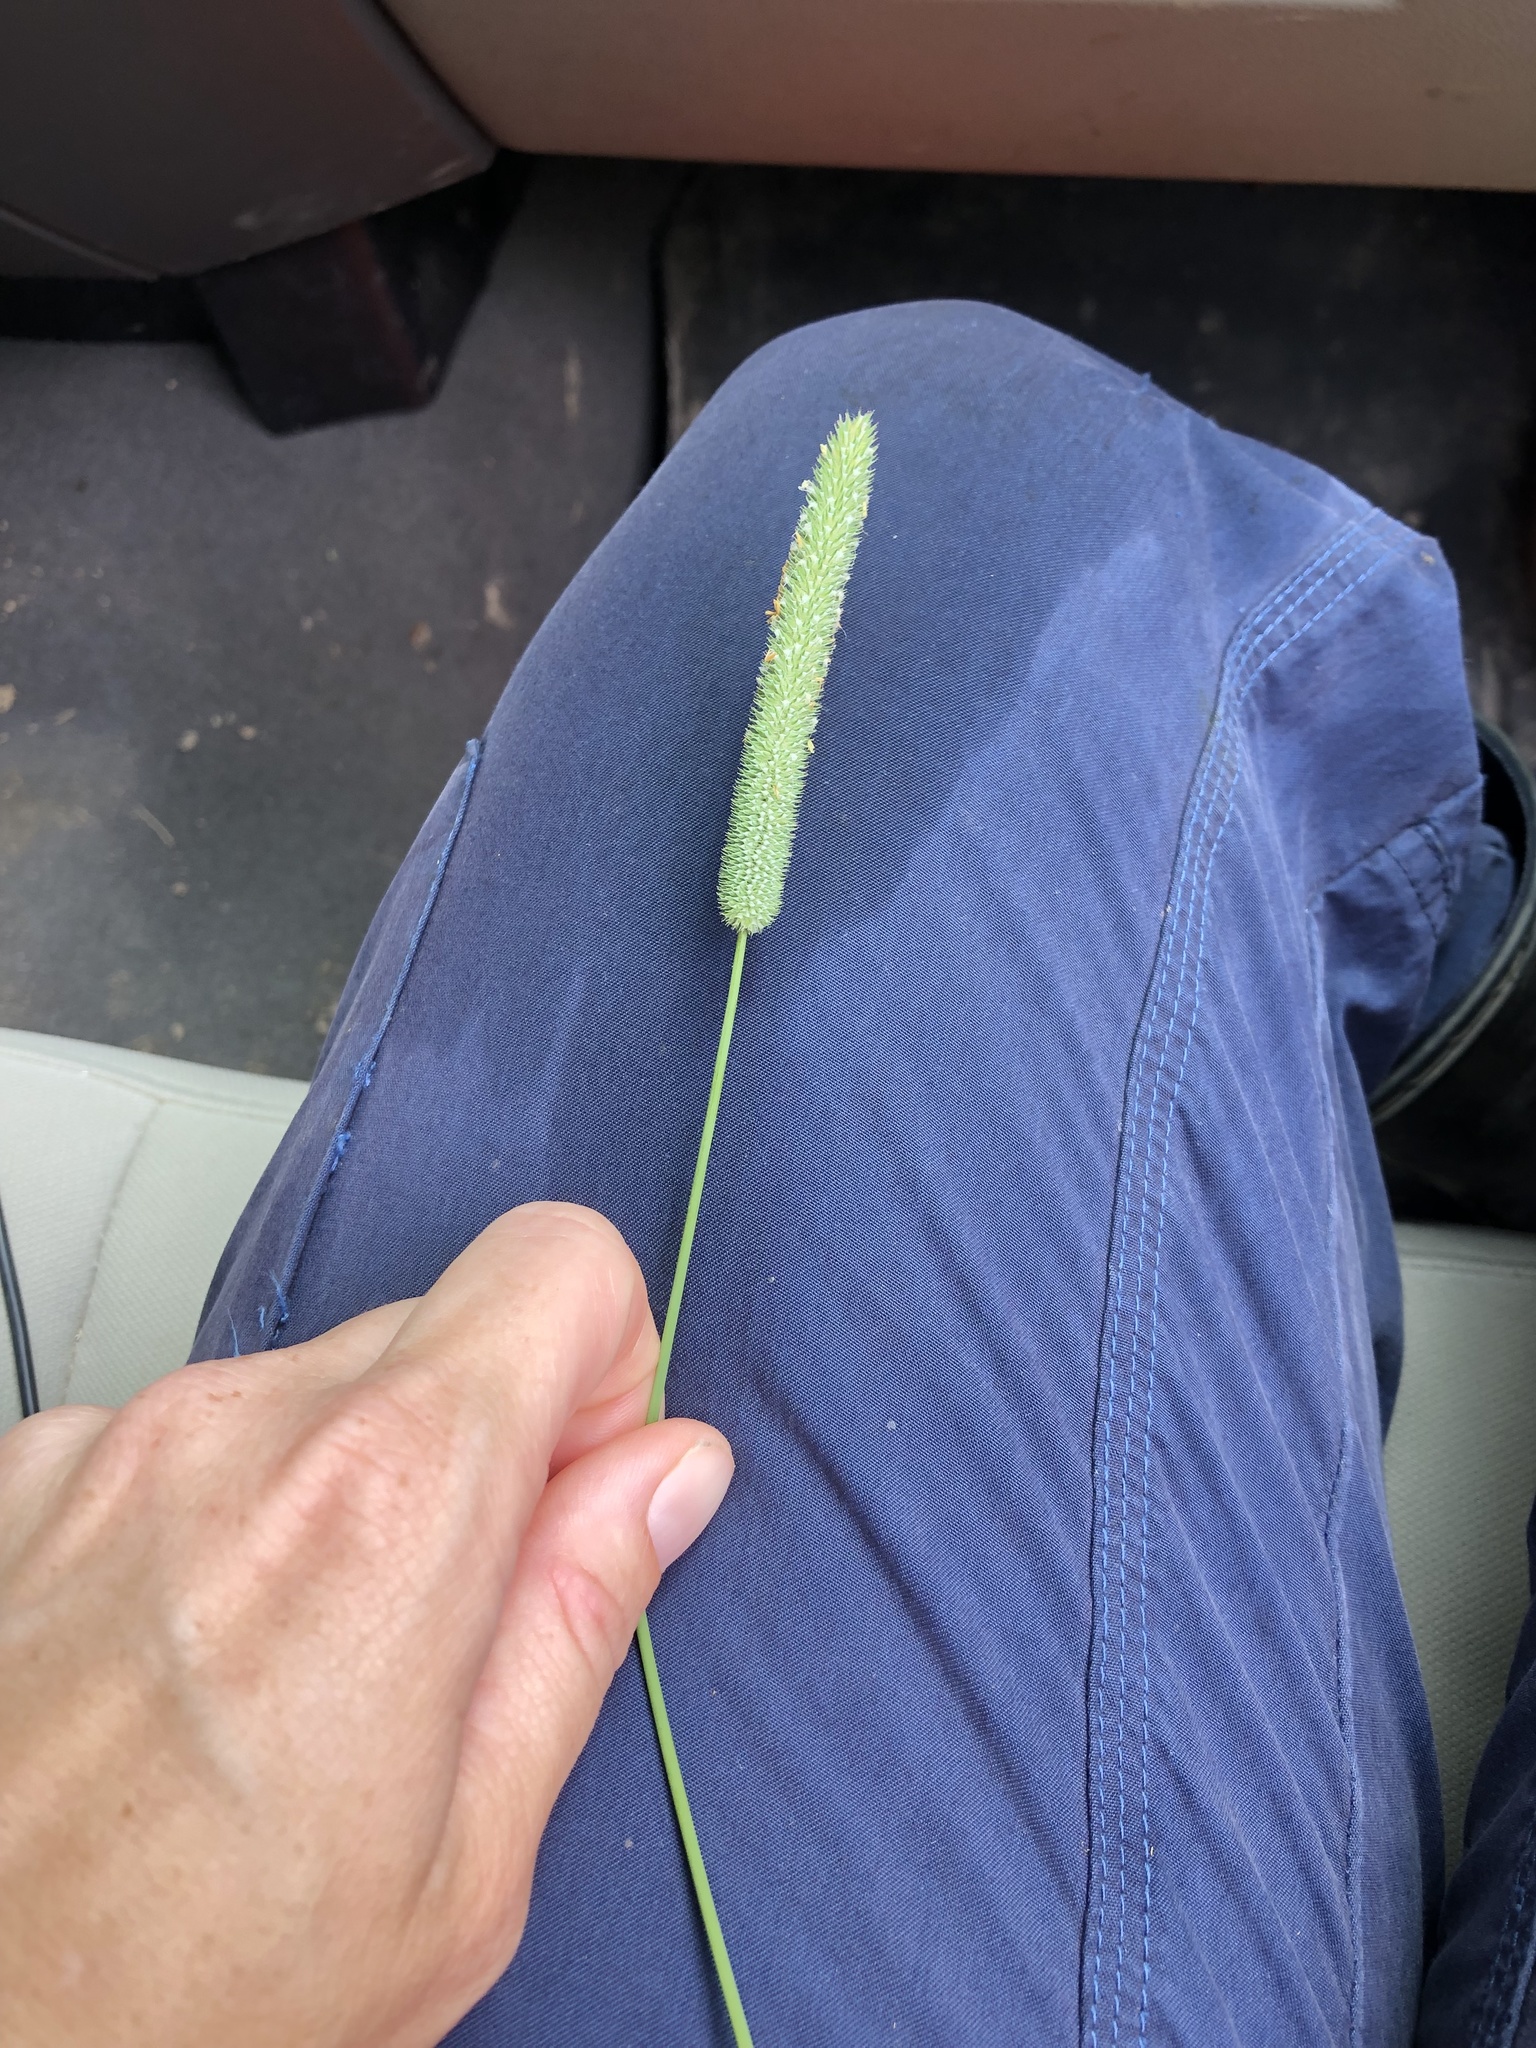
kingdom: Plantae
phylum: Tracheophyta
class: Liliopsida
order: Poales
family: Poaceae
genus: Phleum
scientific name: Phleum pratense
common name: Timothy grass
